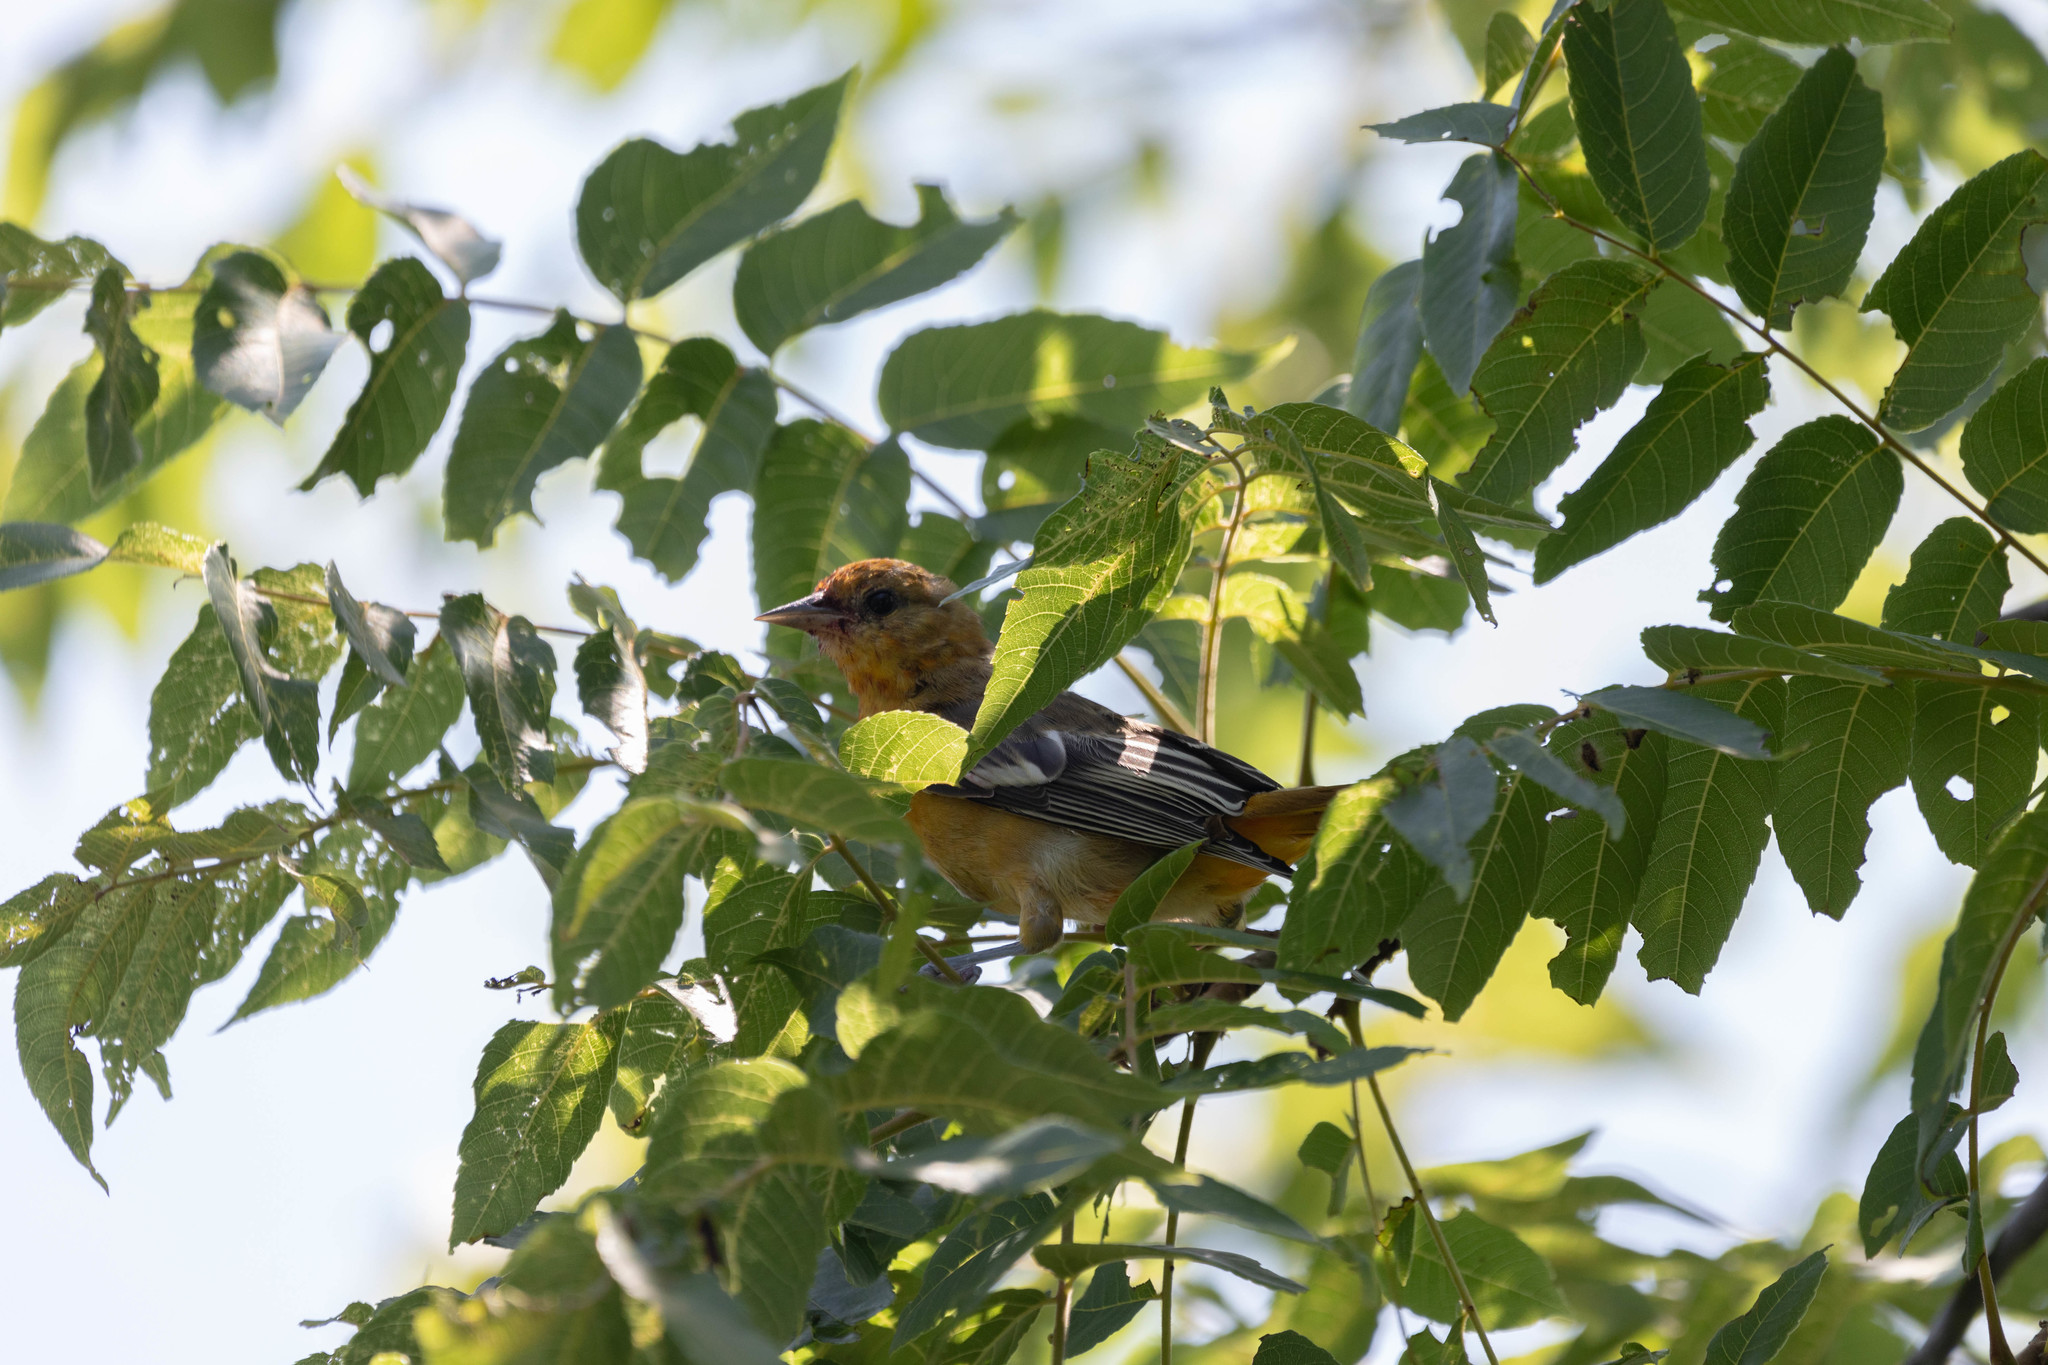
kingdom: Animalia
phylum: Chordata
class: Aves
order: Passeriformes
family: Icteridae
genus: Icterus
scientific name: Icterus galbula
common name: Baltimore oriole
